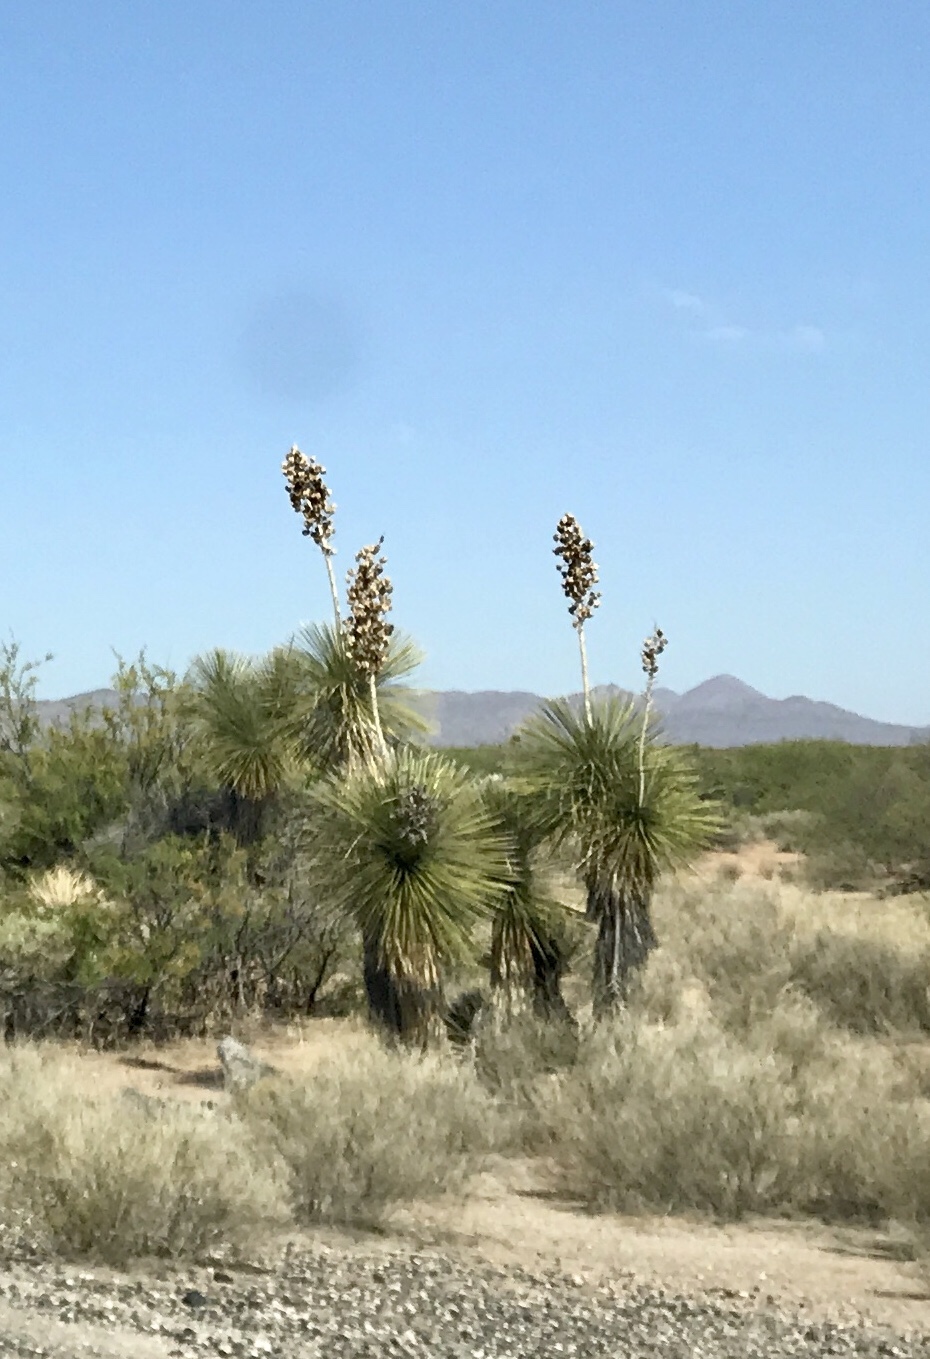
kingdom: Plantae
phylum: Tracheophyta
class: Liliopsida
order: Asparagales
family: Asparagaceae
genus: Yucca
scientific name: Yucca elata
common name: Palmella
